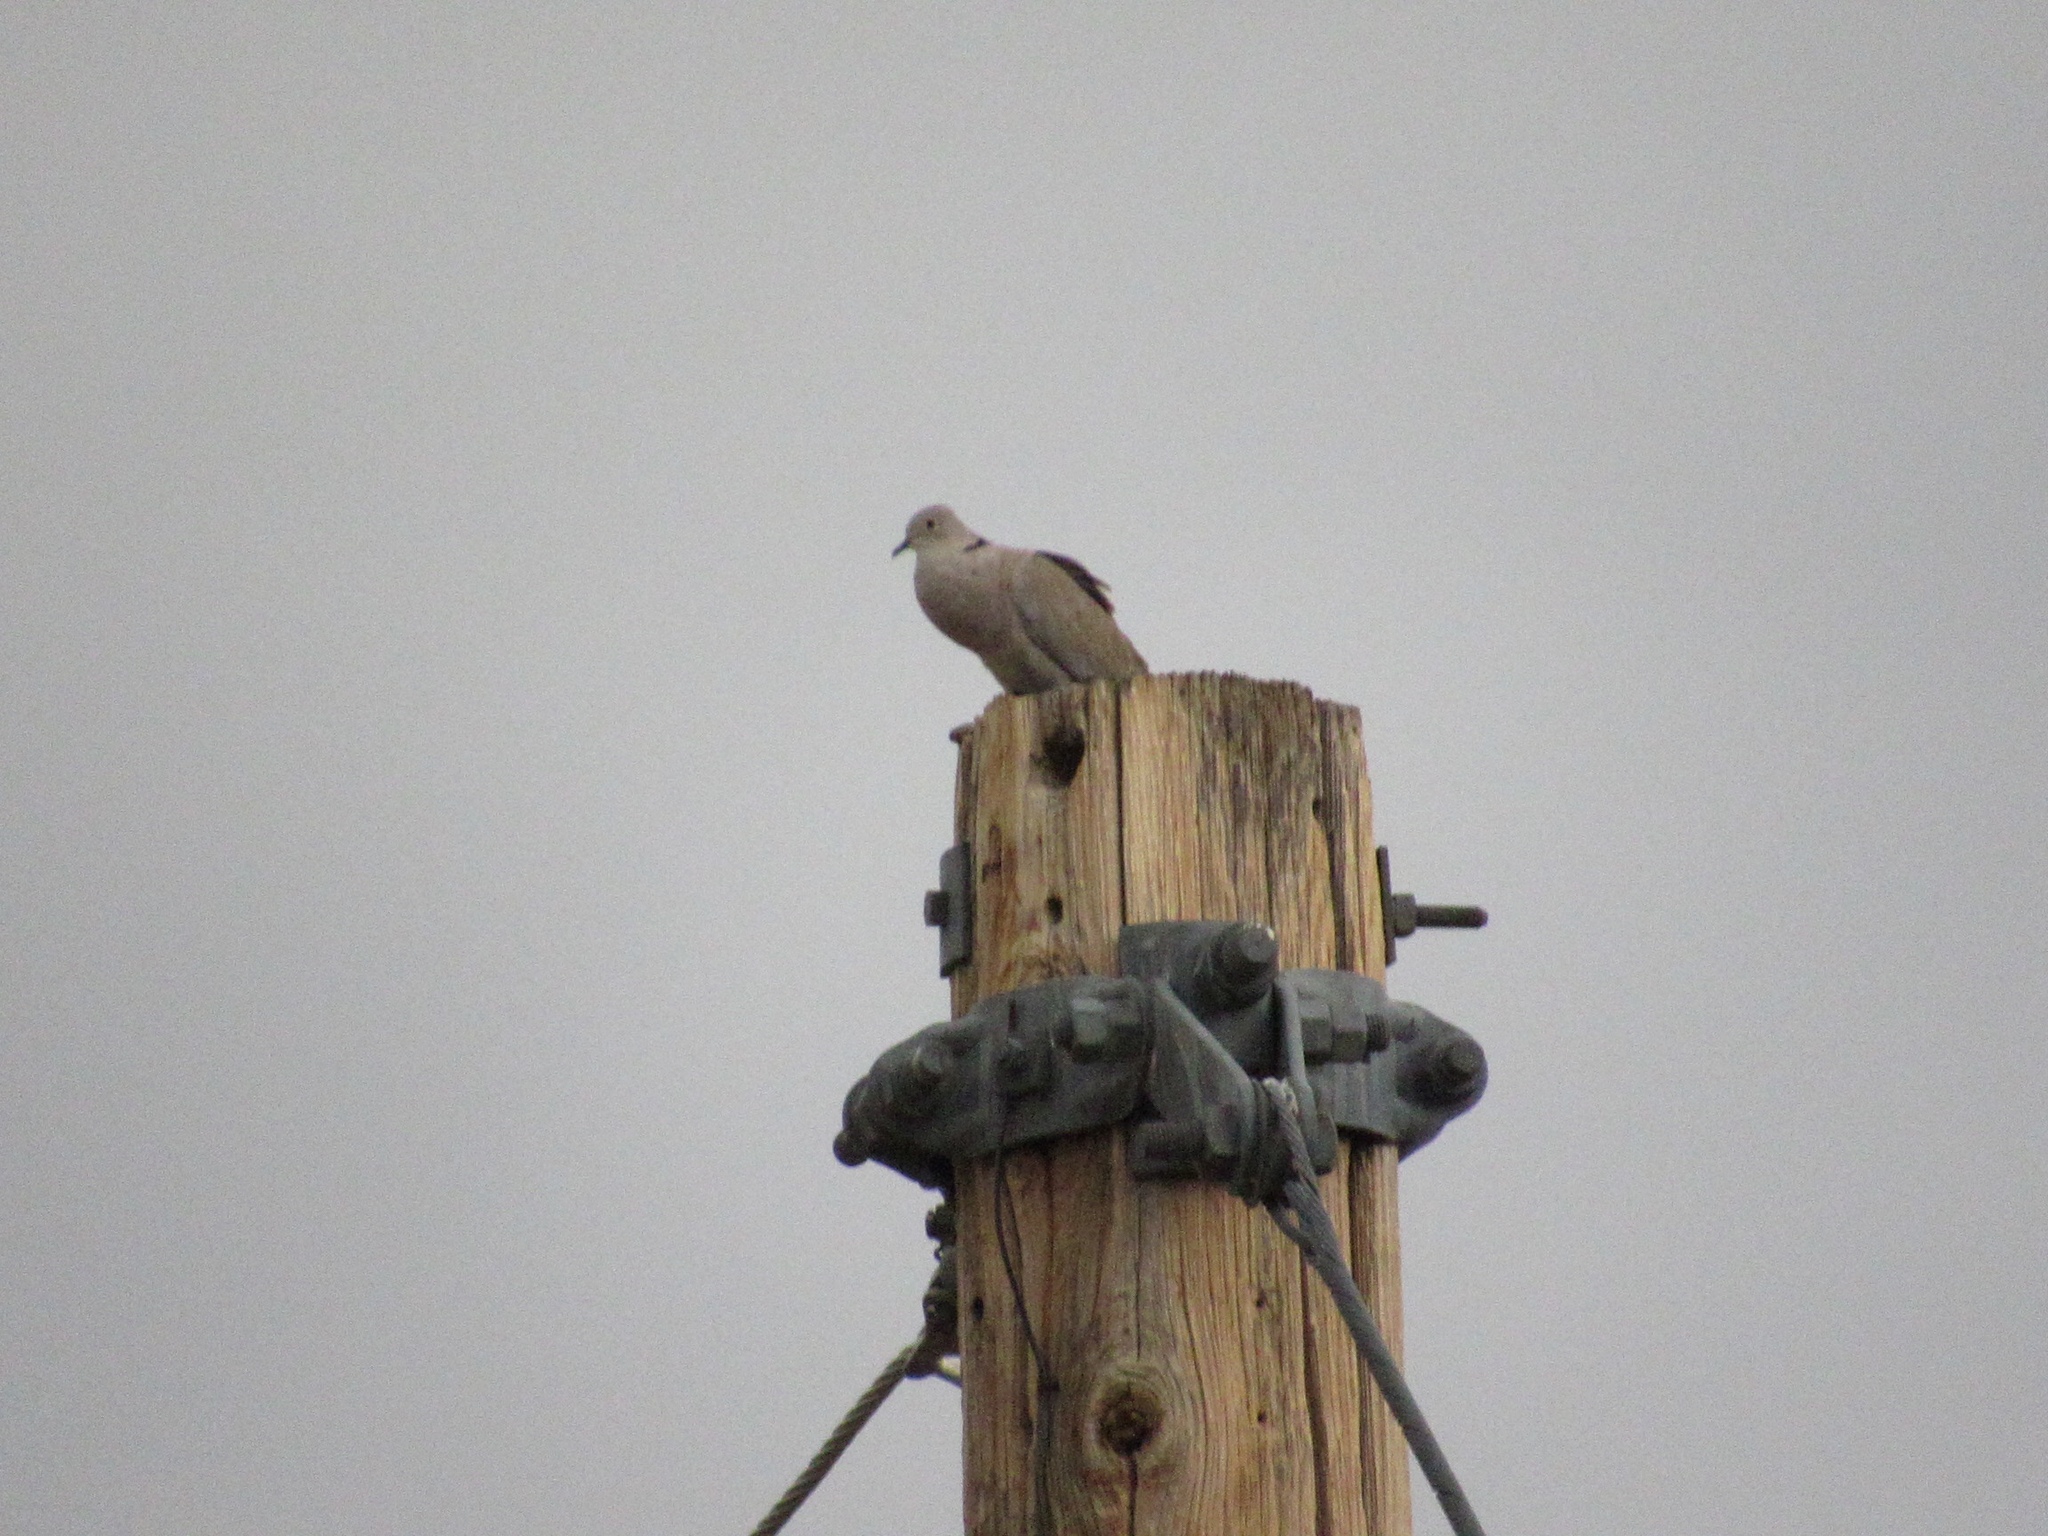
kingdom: Animalia
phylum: Chordata
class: Aves
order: Columbiformes
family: Columbidae
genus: Streptopelia
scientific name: Streptopelia decaocto
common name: Eurasian collared dove
